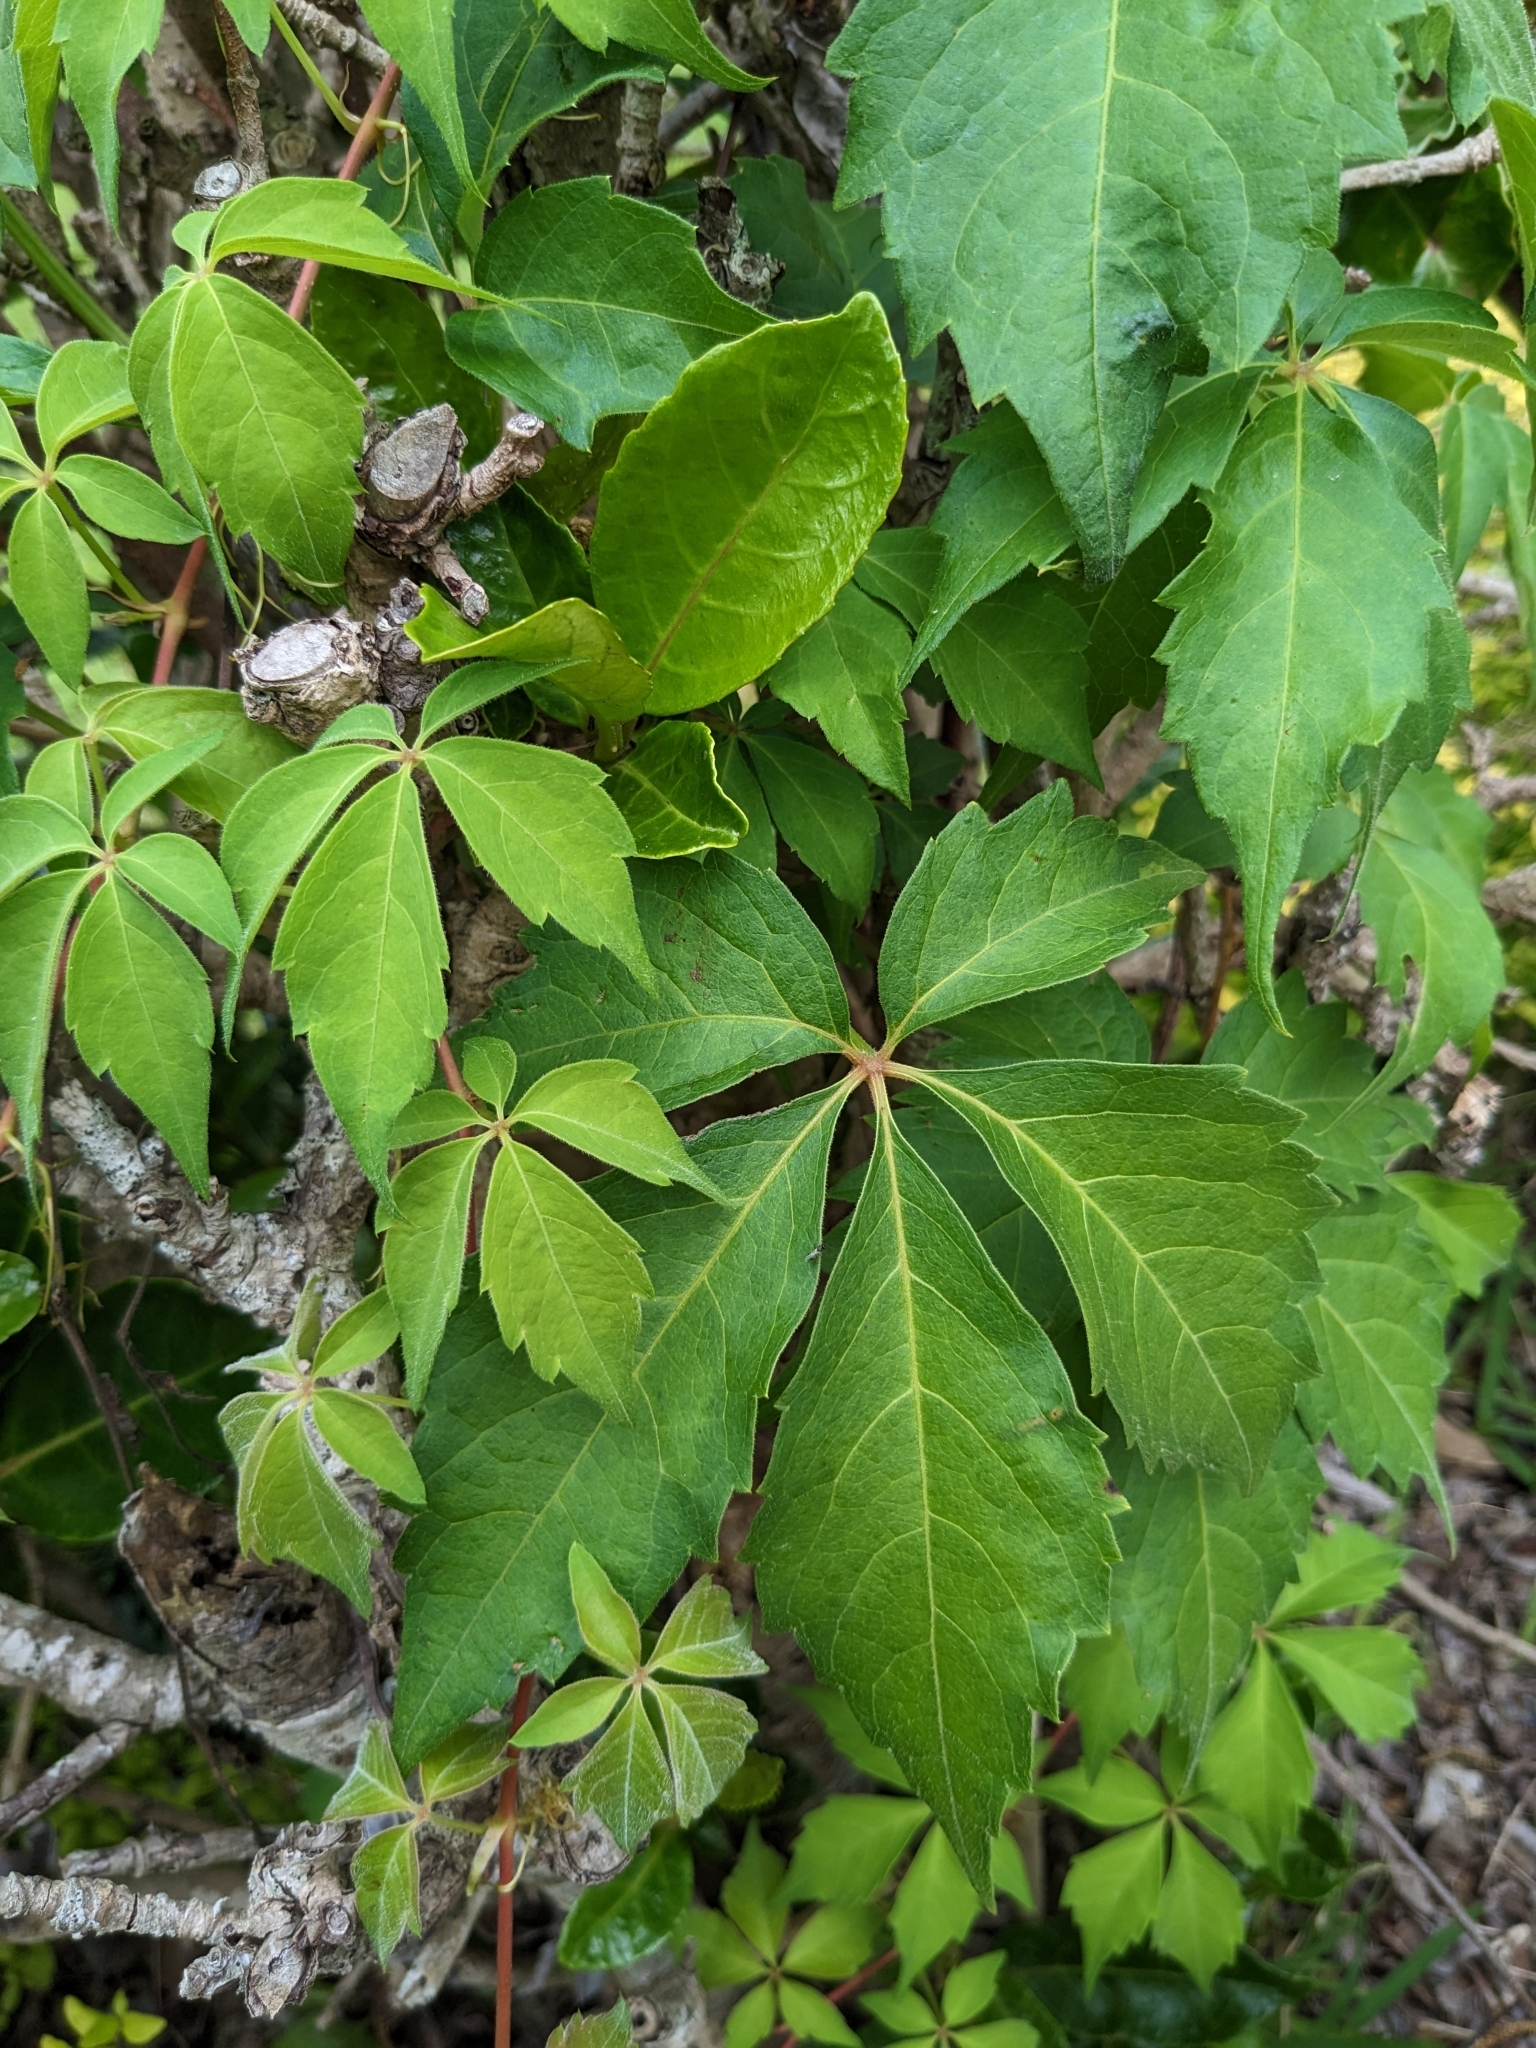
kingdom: Plantae
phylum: Tracheophyta
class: Magnoliopsida
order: Vitales
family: Vitaceae
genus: Parthenocissus
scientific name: Parthenocissus quinquefolia
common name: Virginia-creeper
